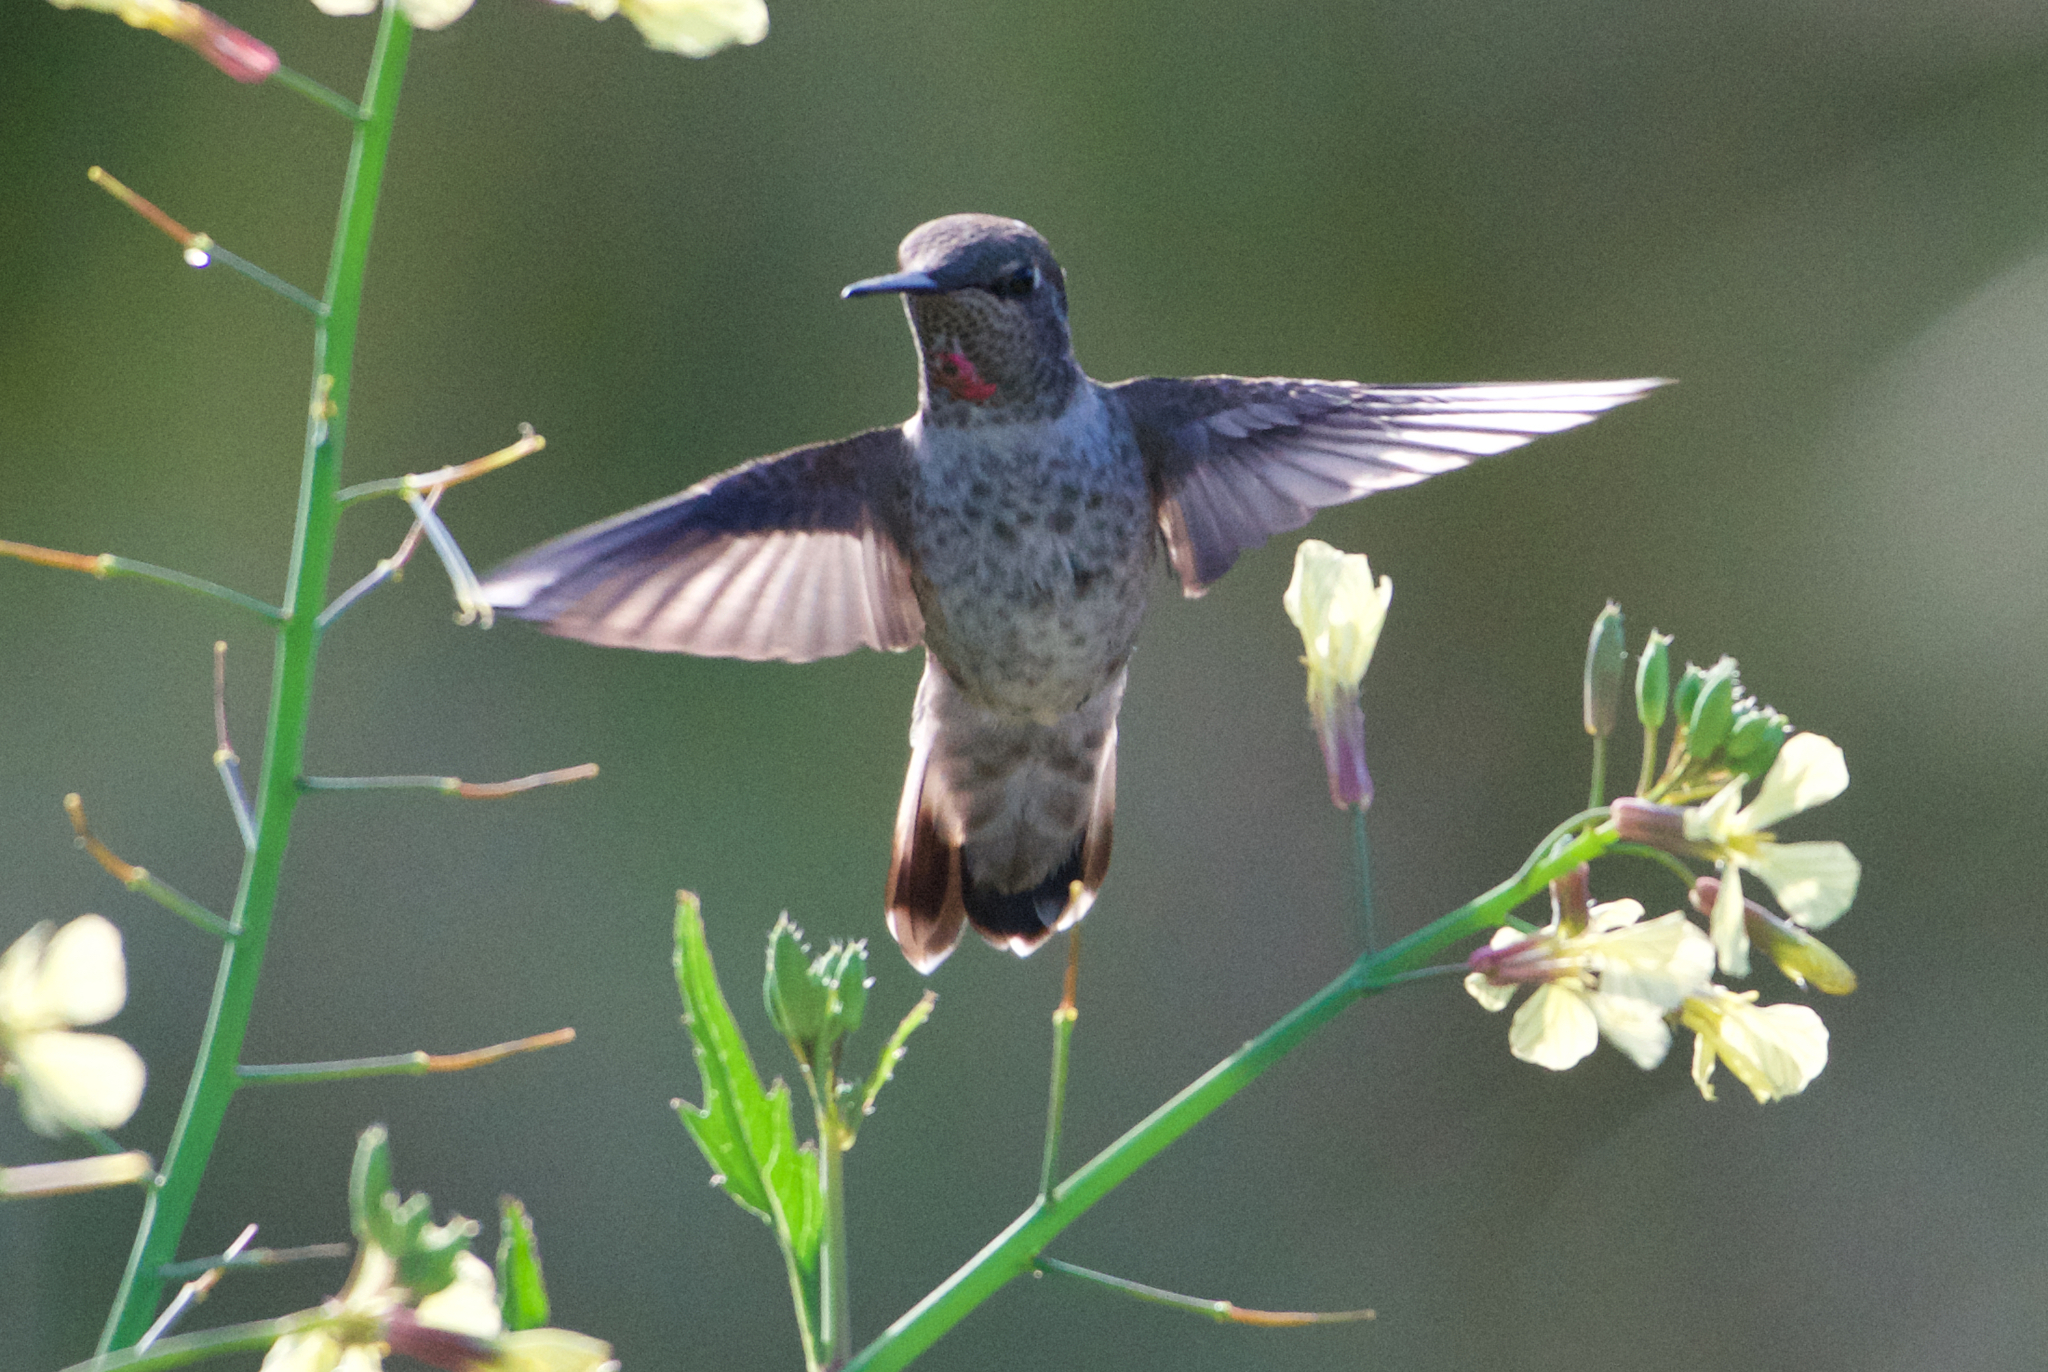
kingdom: Animalia
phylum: Chordata
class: Aves
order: Apodiformes
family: Trochilidae
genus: Calypte
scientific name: Calypte anna
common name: Anna's hummingbird
